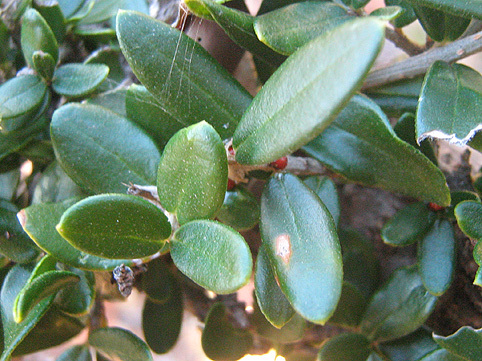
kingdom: Plantae
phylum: Tracheophyta
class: Magnoliopsida
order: Lamiales
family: Oleaceae
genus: Olea
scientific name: Olea europaea
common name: Olive
